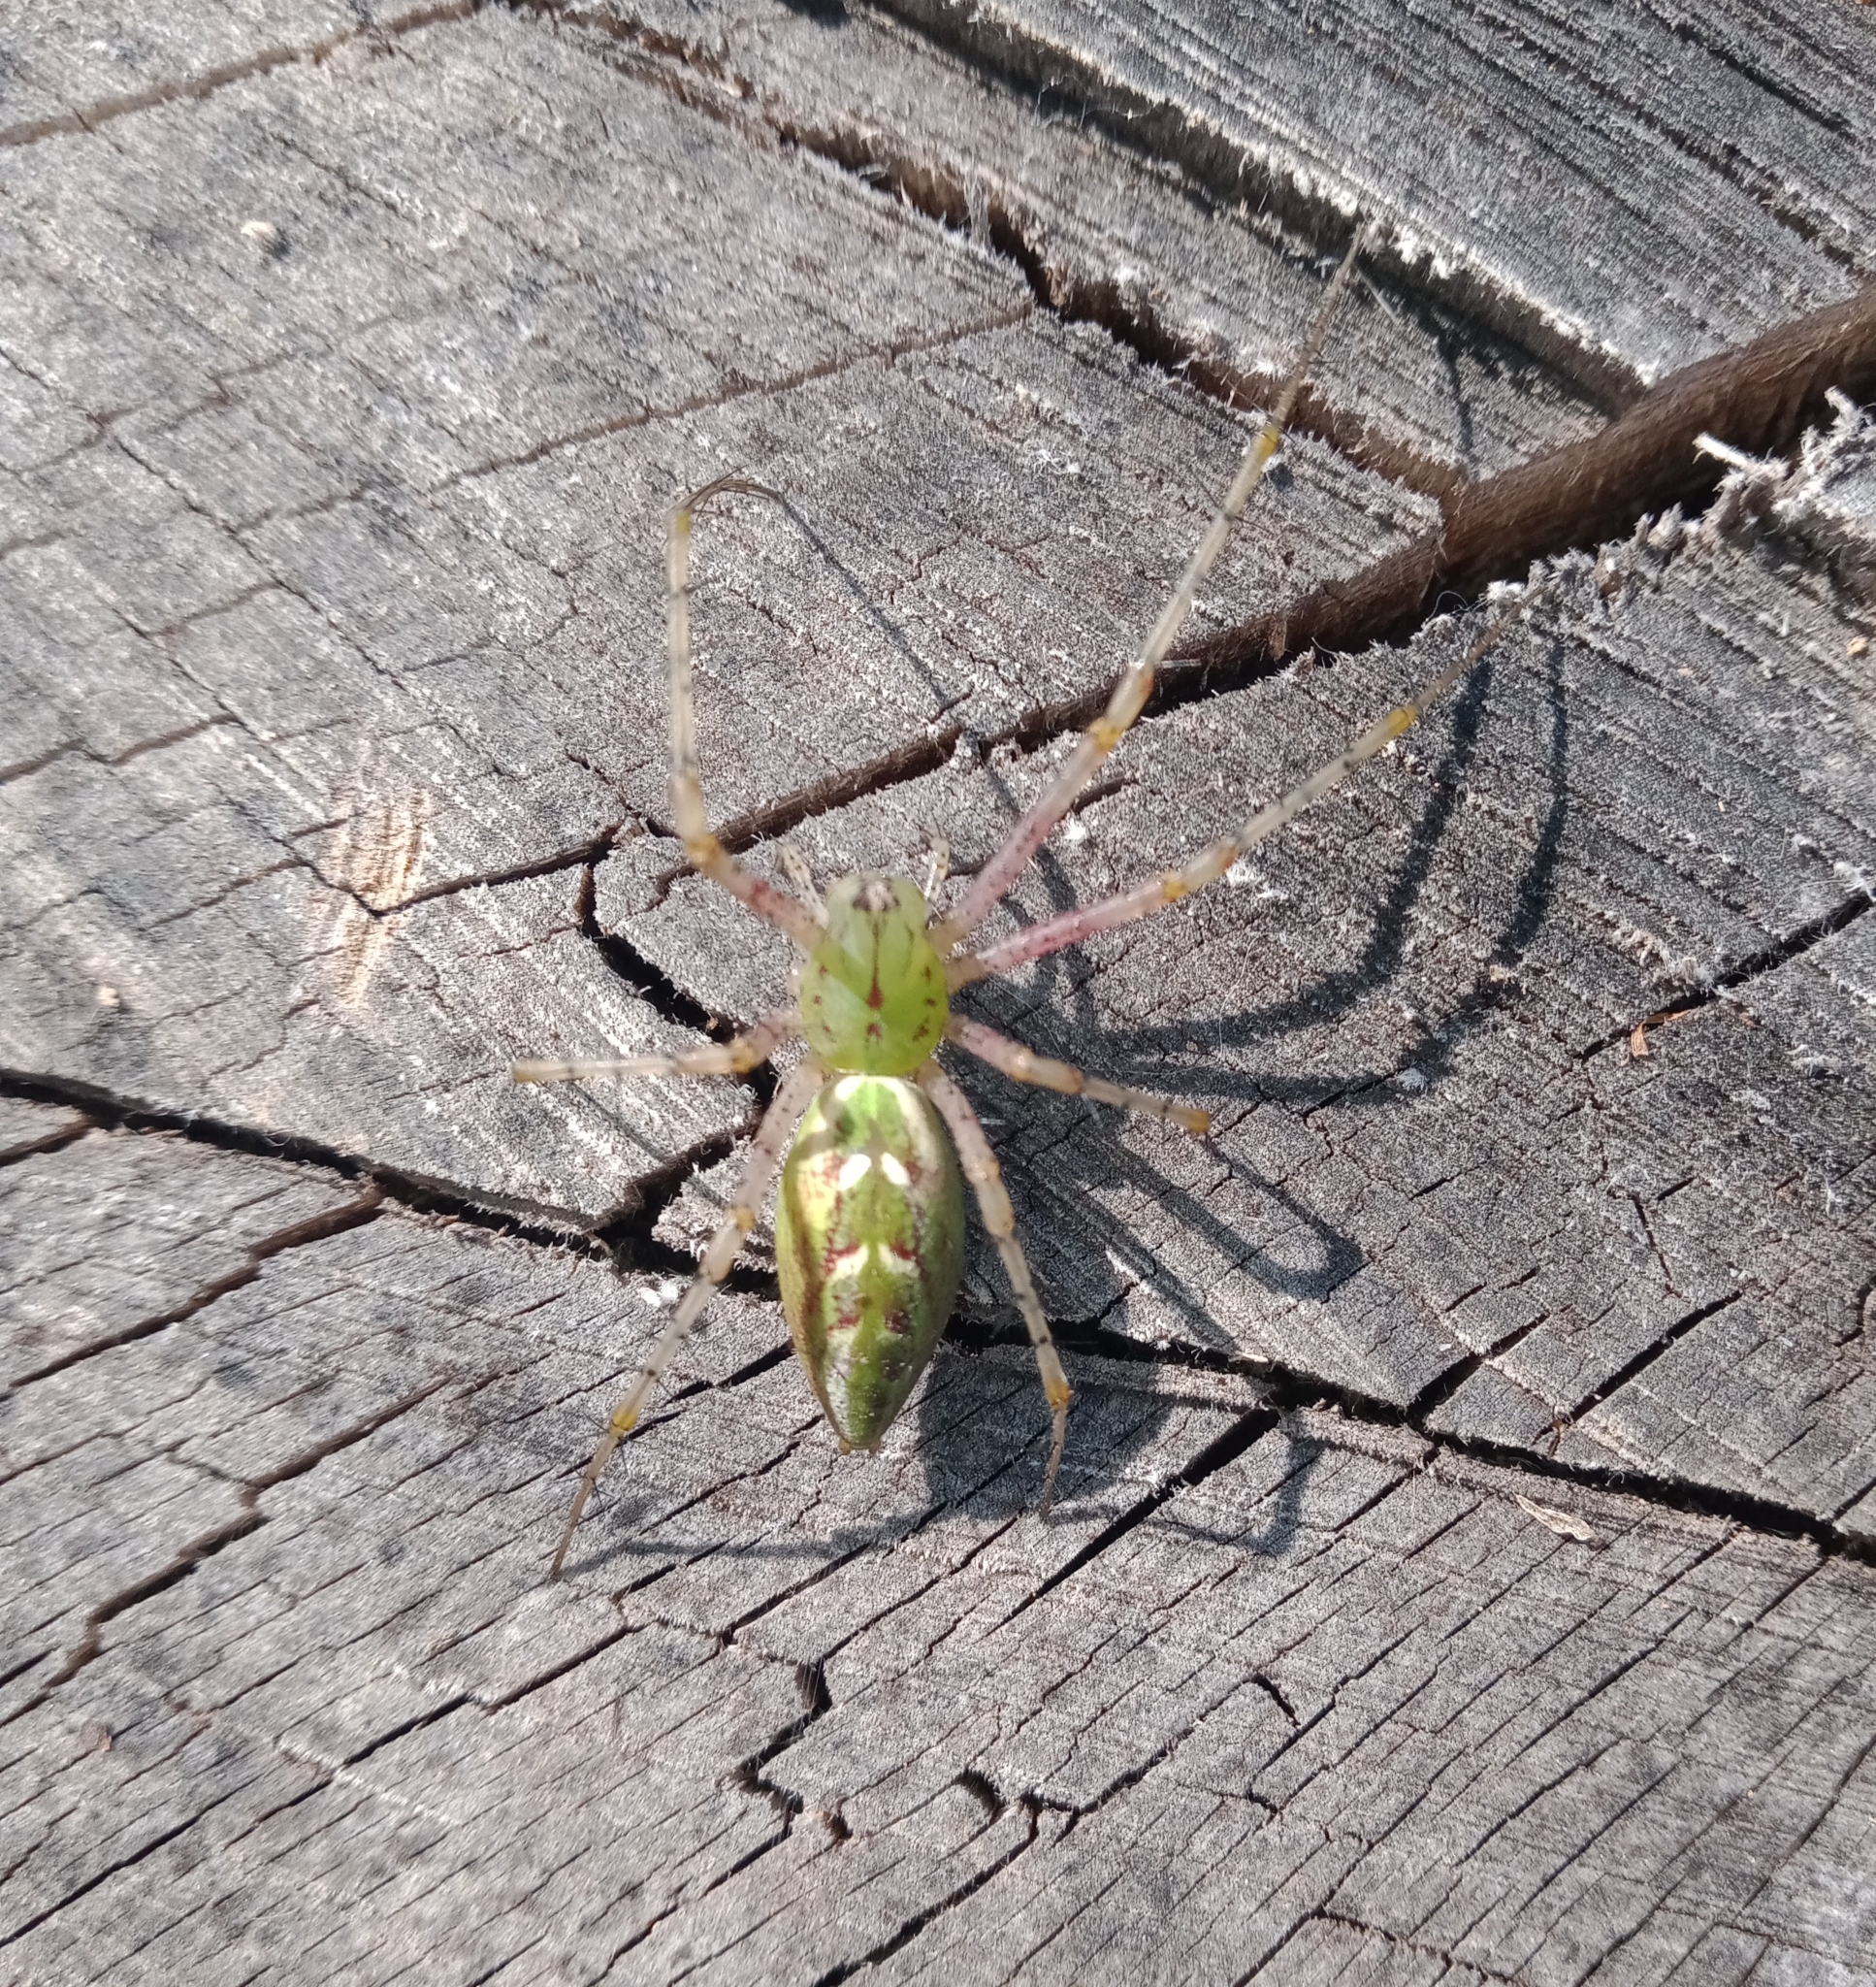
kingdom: Animalia
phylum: Arthropoda
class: Arachnida
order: Araneae
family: Oxyopidae
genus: Peucetia
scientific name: Peucetia viridans
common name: Lynx spiders
